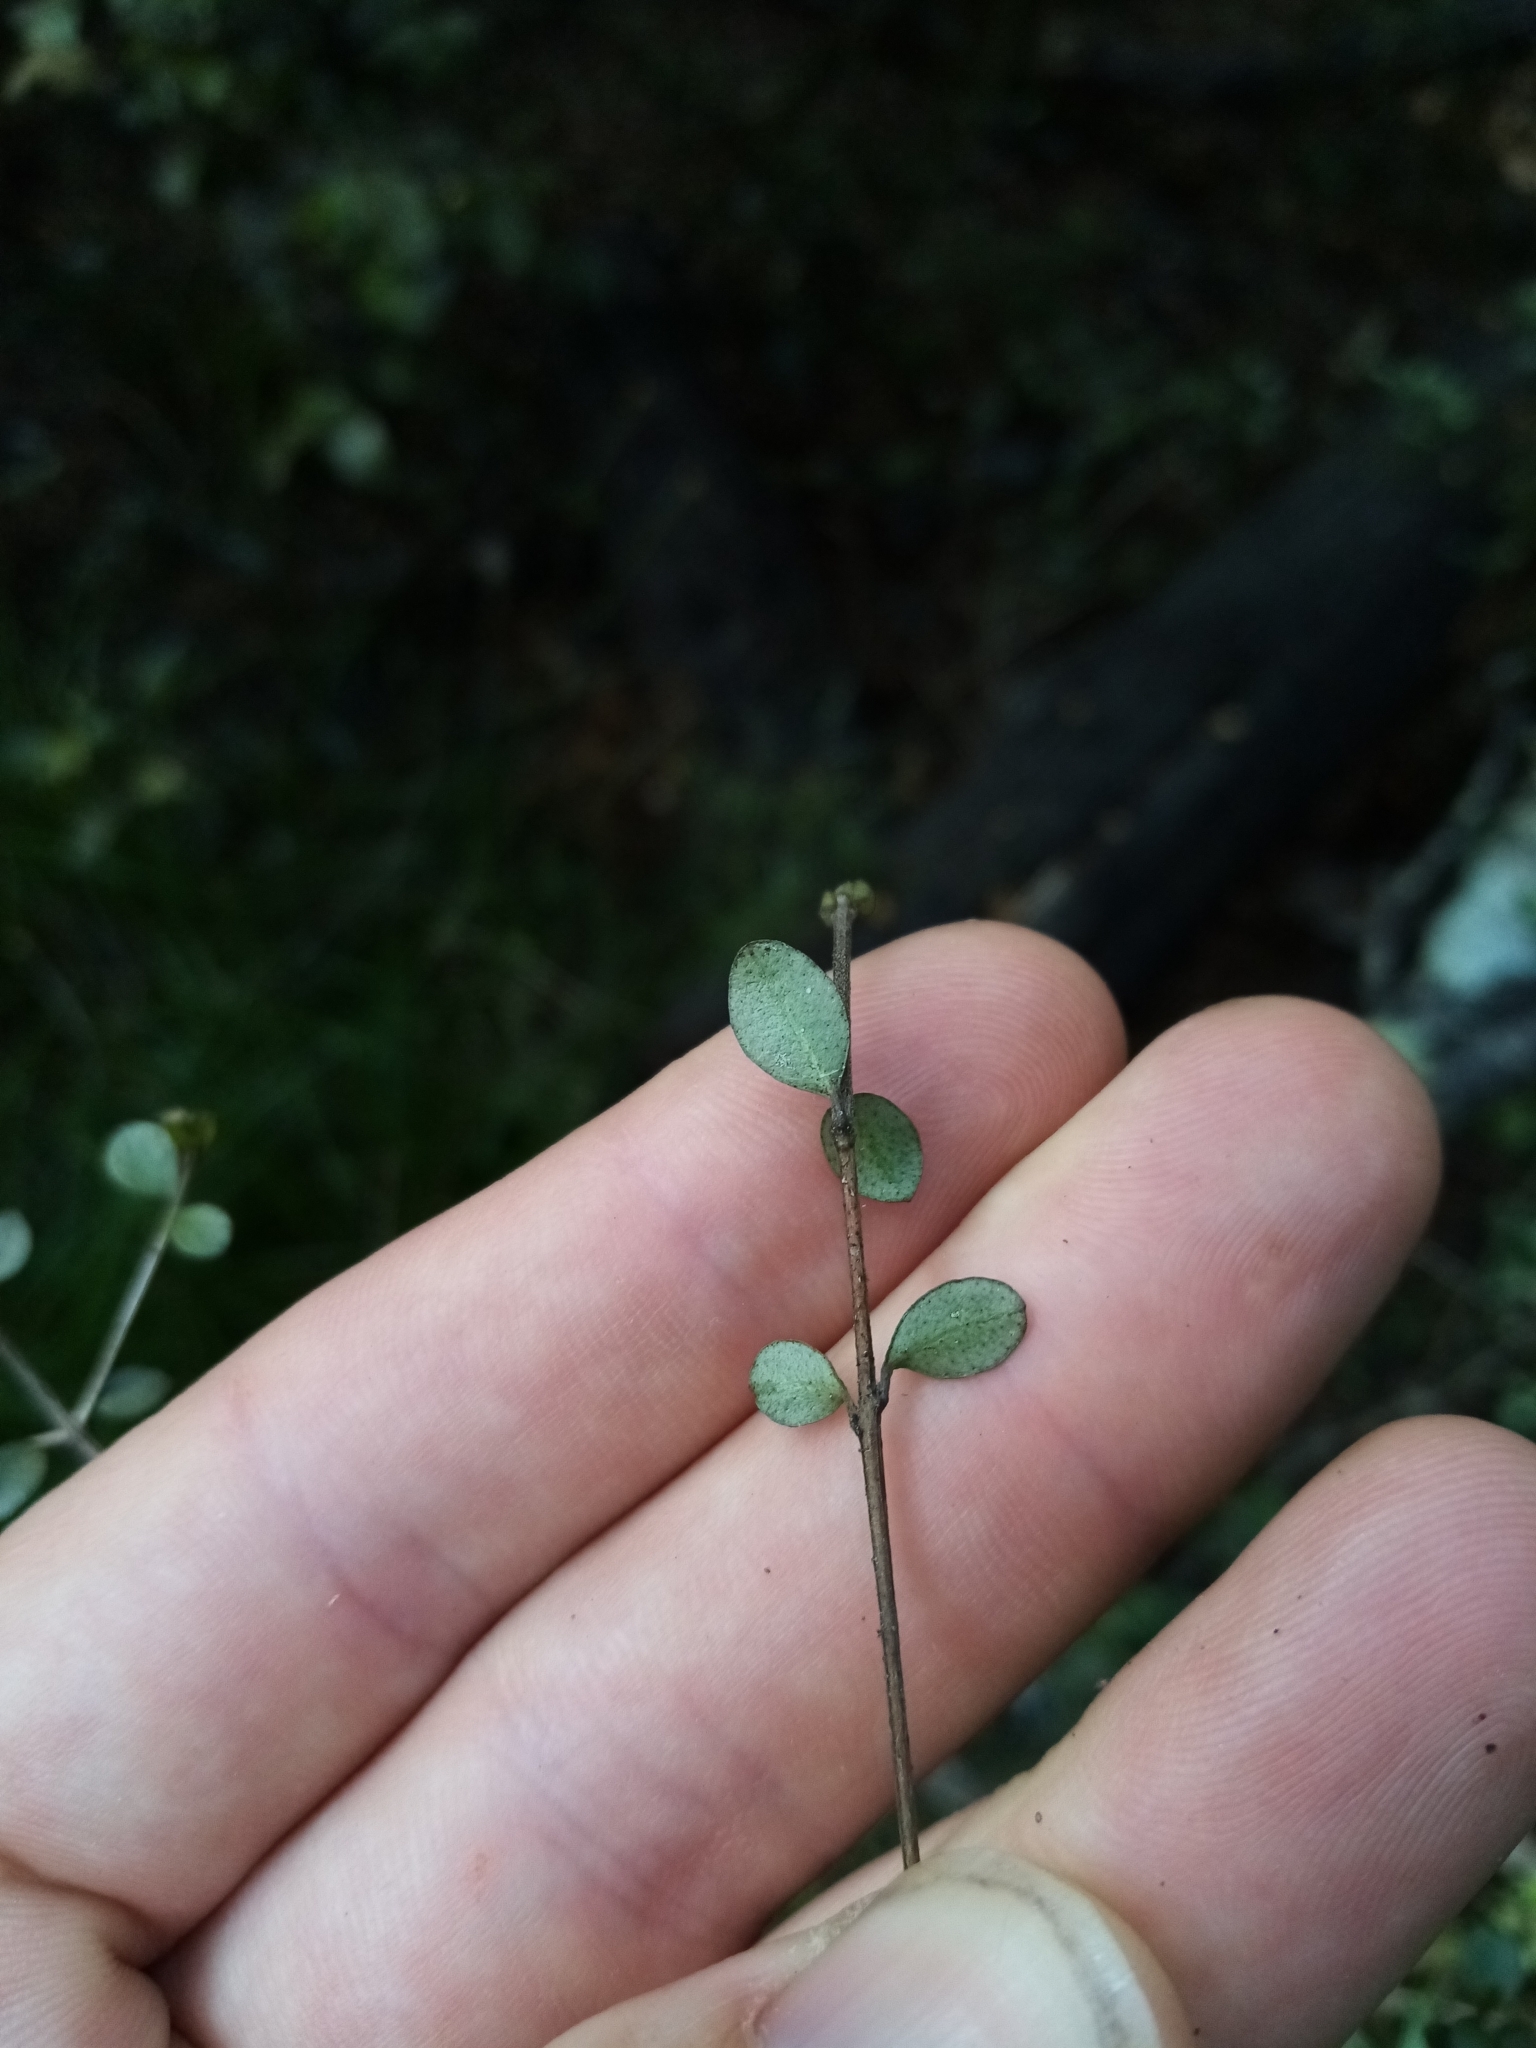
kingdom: Plantae
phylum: Tracheophyta
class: Magnoliopsida
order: Myrtales
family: Myrtaceae
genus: Neomyrtus
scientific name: Neomyrtus pedunculata
